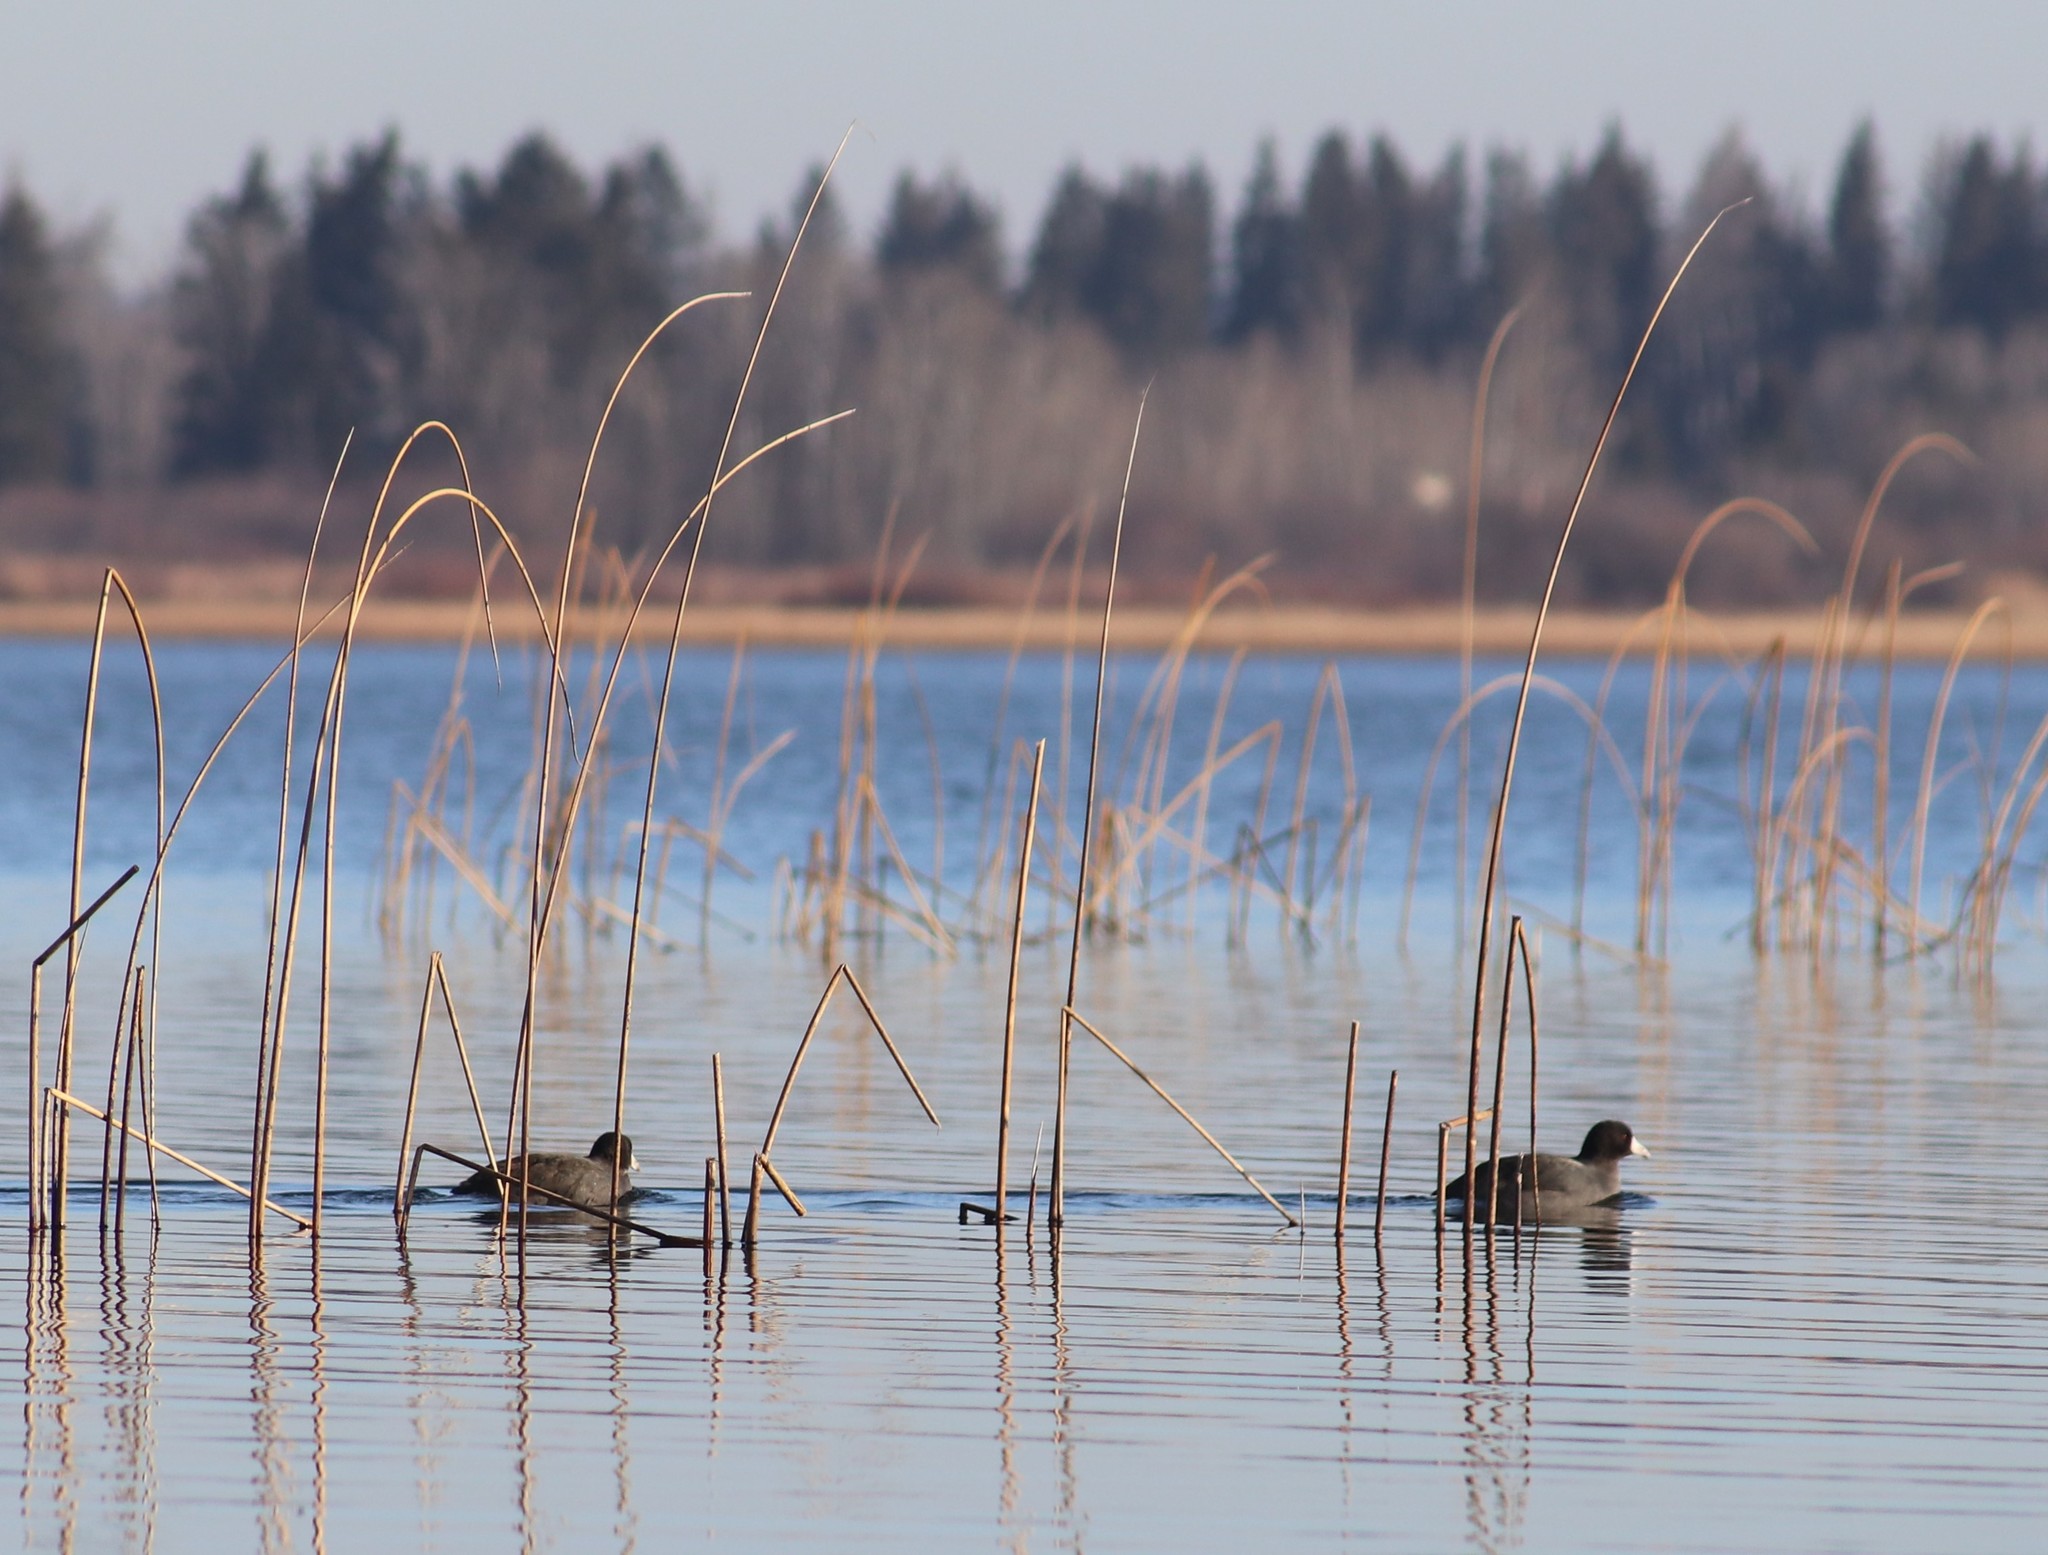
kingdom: Animalia
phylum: Chordata
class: Aves
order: Gruiformes
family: Rallidae
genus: Fulica
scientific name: Fulica americana
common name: American coot
